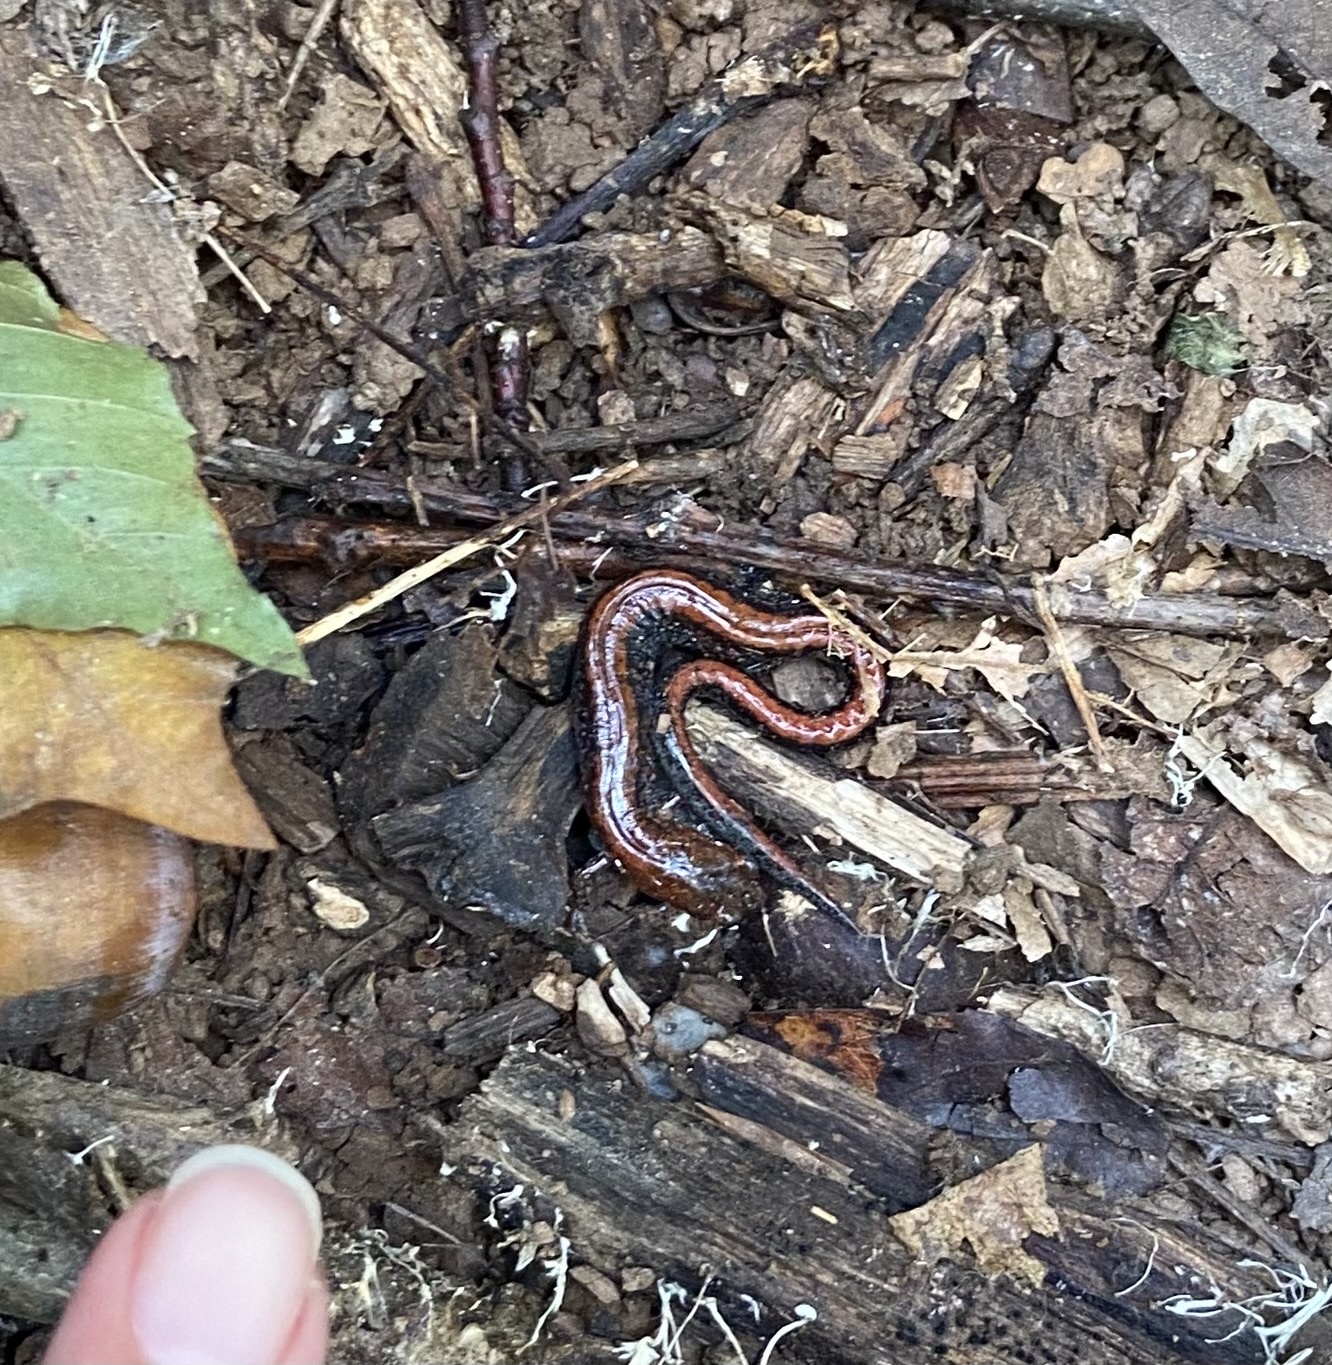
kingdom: Animalia
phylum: Chordata
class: Amphibia
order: Caudata
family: Plethodontidae
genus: Plethodon
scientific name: Plethodon cinereus
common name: Redback salamander
